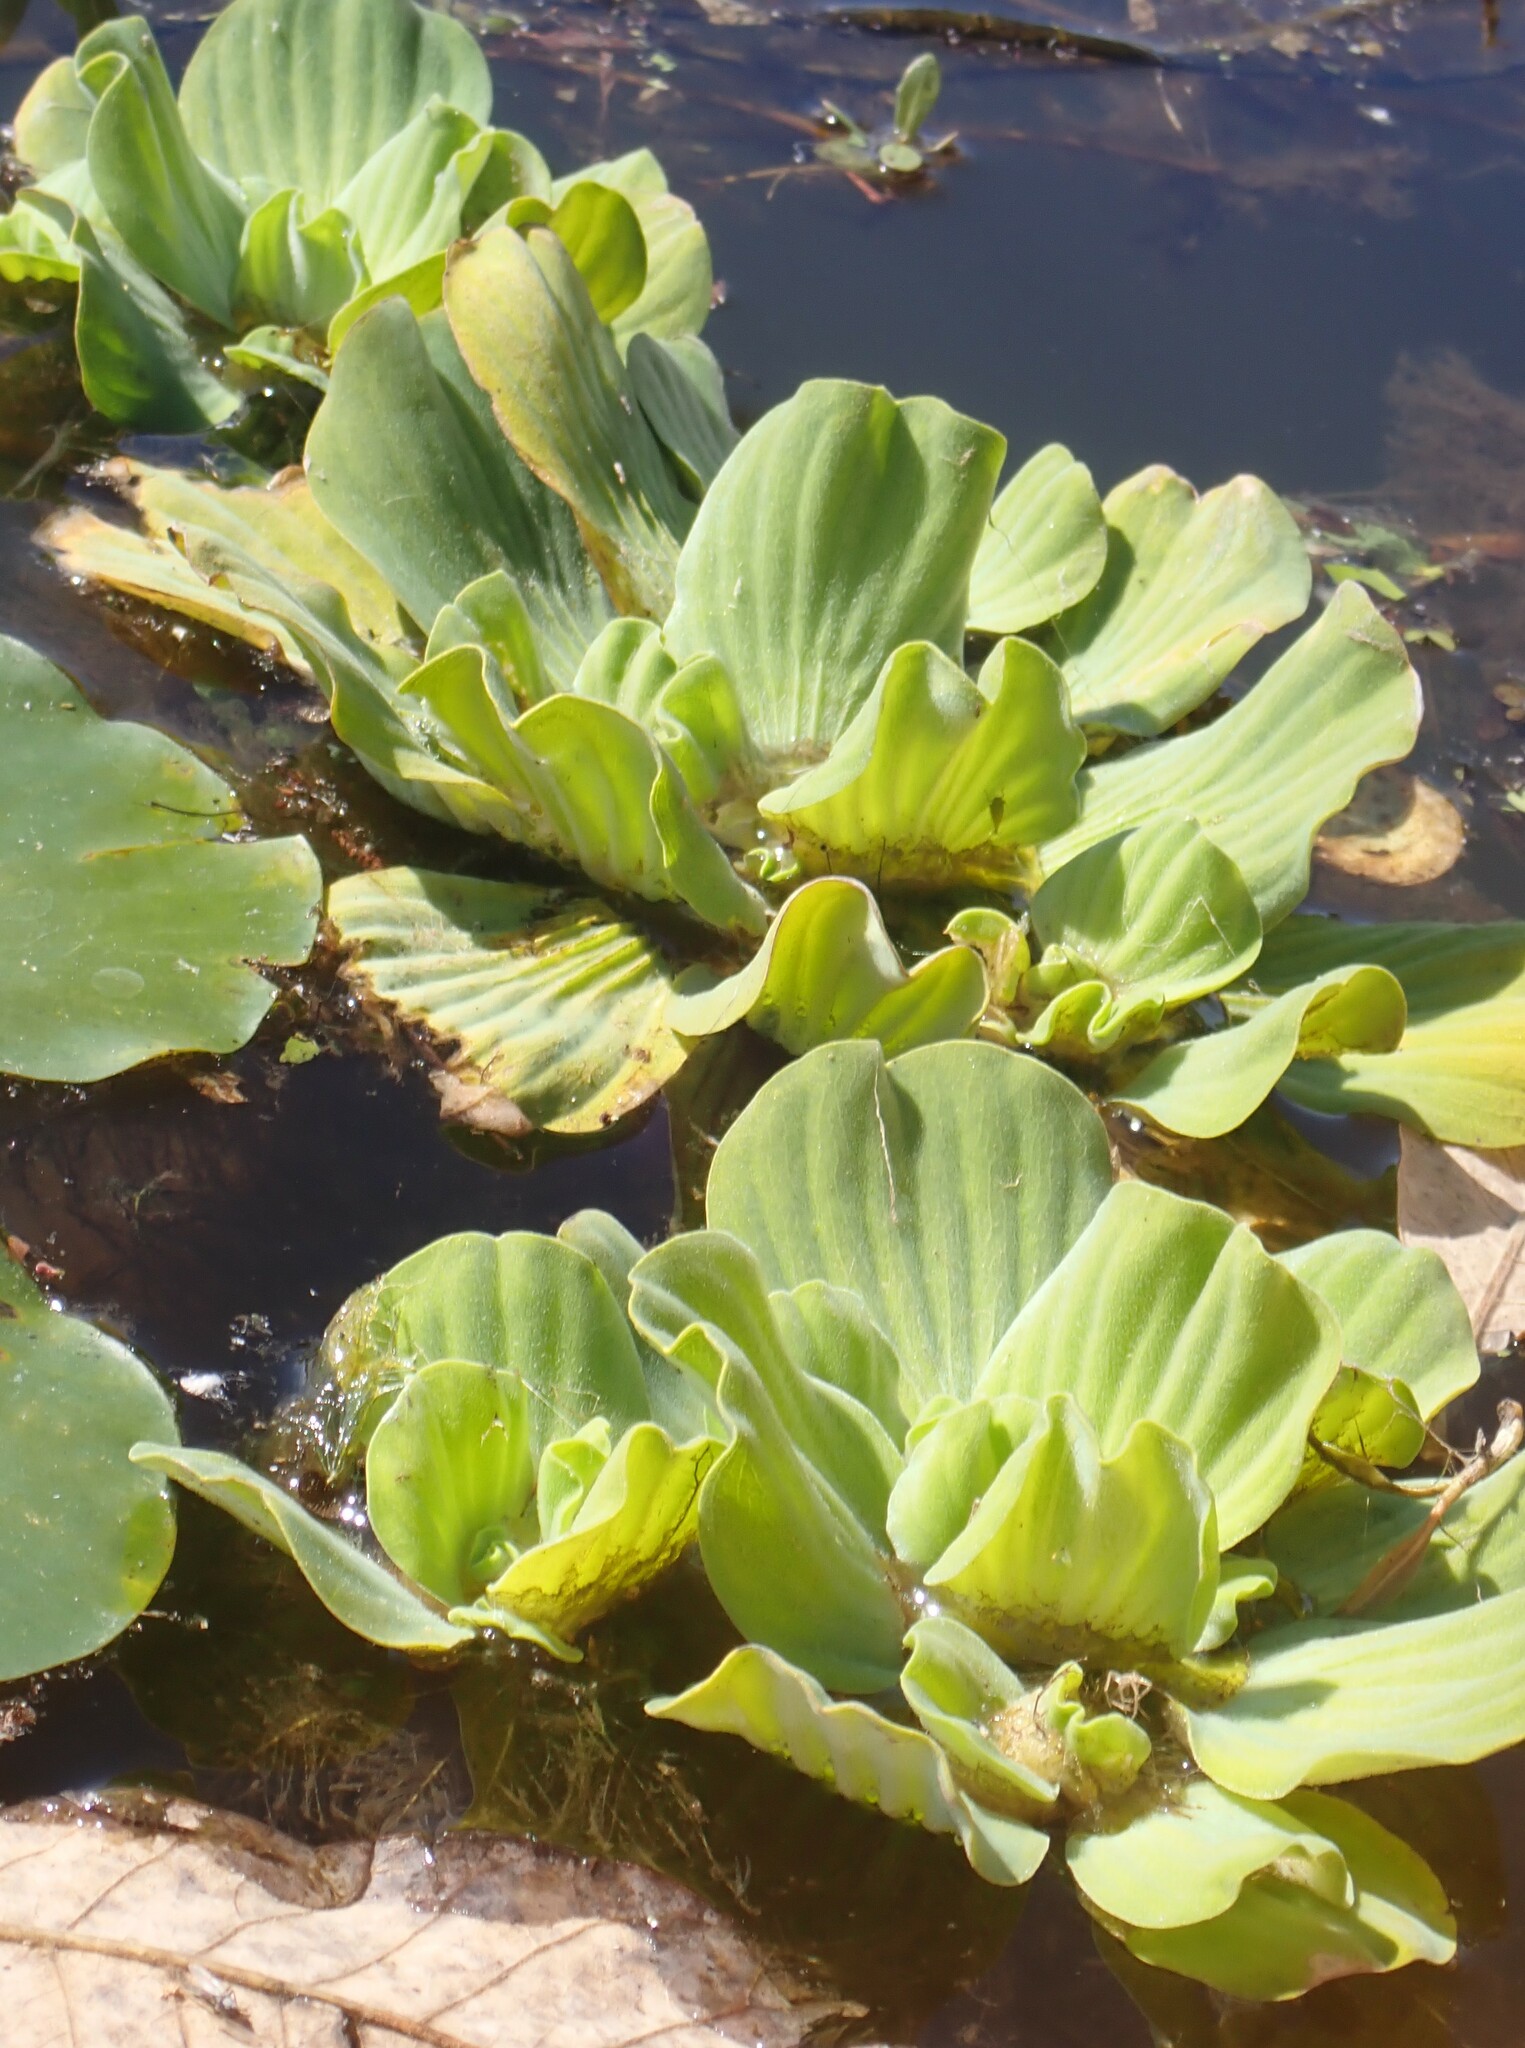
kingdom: Plantae
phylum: Tracheophyta
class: Liliopsida
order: Alismatales
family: Araceae
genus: Pistia
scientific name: Pistia stratiotes
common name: Water lettuce
